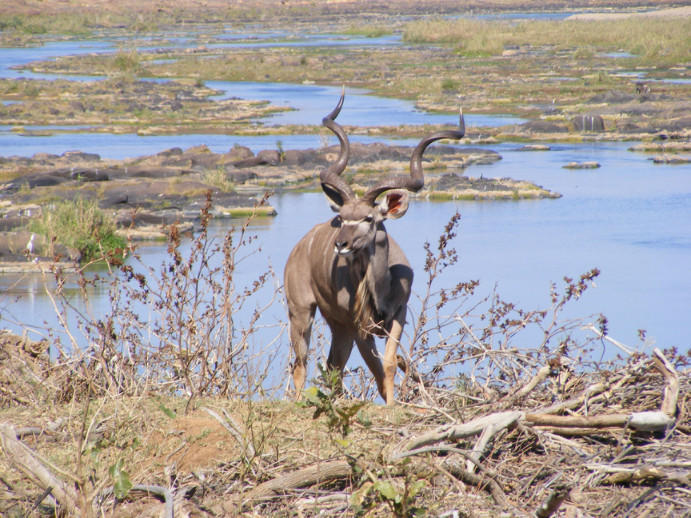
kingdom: Animalia
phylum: Chordata
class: Mammalia
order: Artiodactyla
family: Bovidae
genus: Tragelaphus
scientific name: Tragelaphus strepsiceros
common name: Greater kudu
